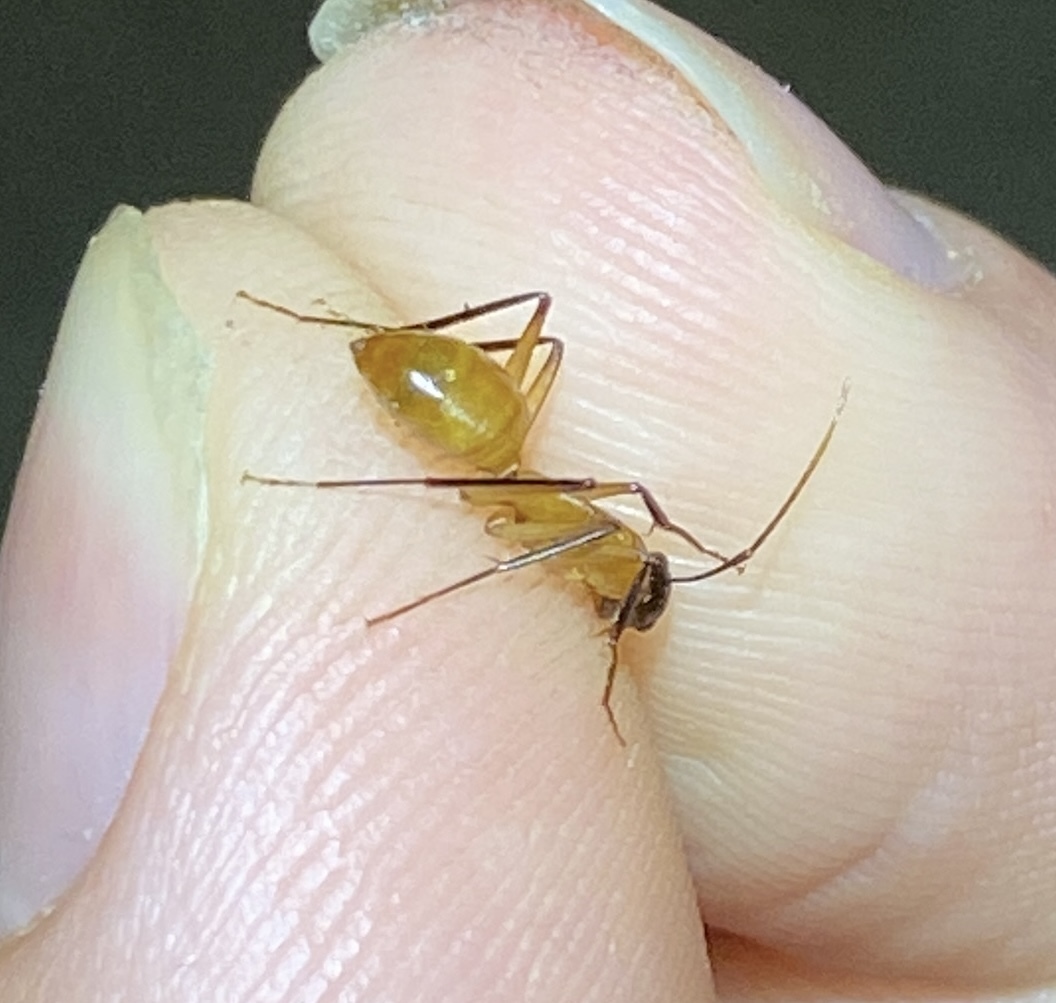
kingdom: Animalia
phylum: Arthropoda
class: Insecta
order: Hymenoptera
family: Formicidae
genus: Camponotus
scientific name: Camponotus ocreatus
